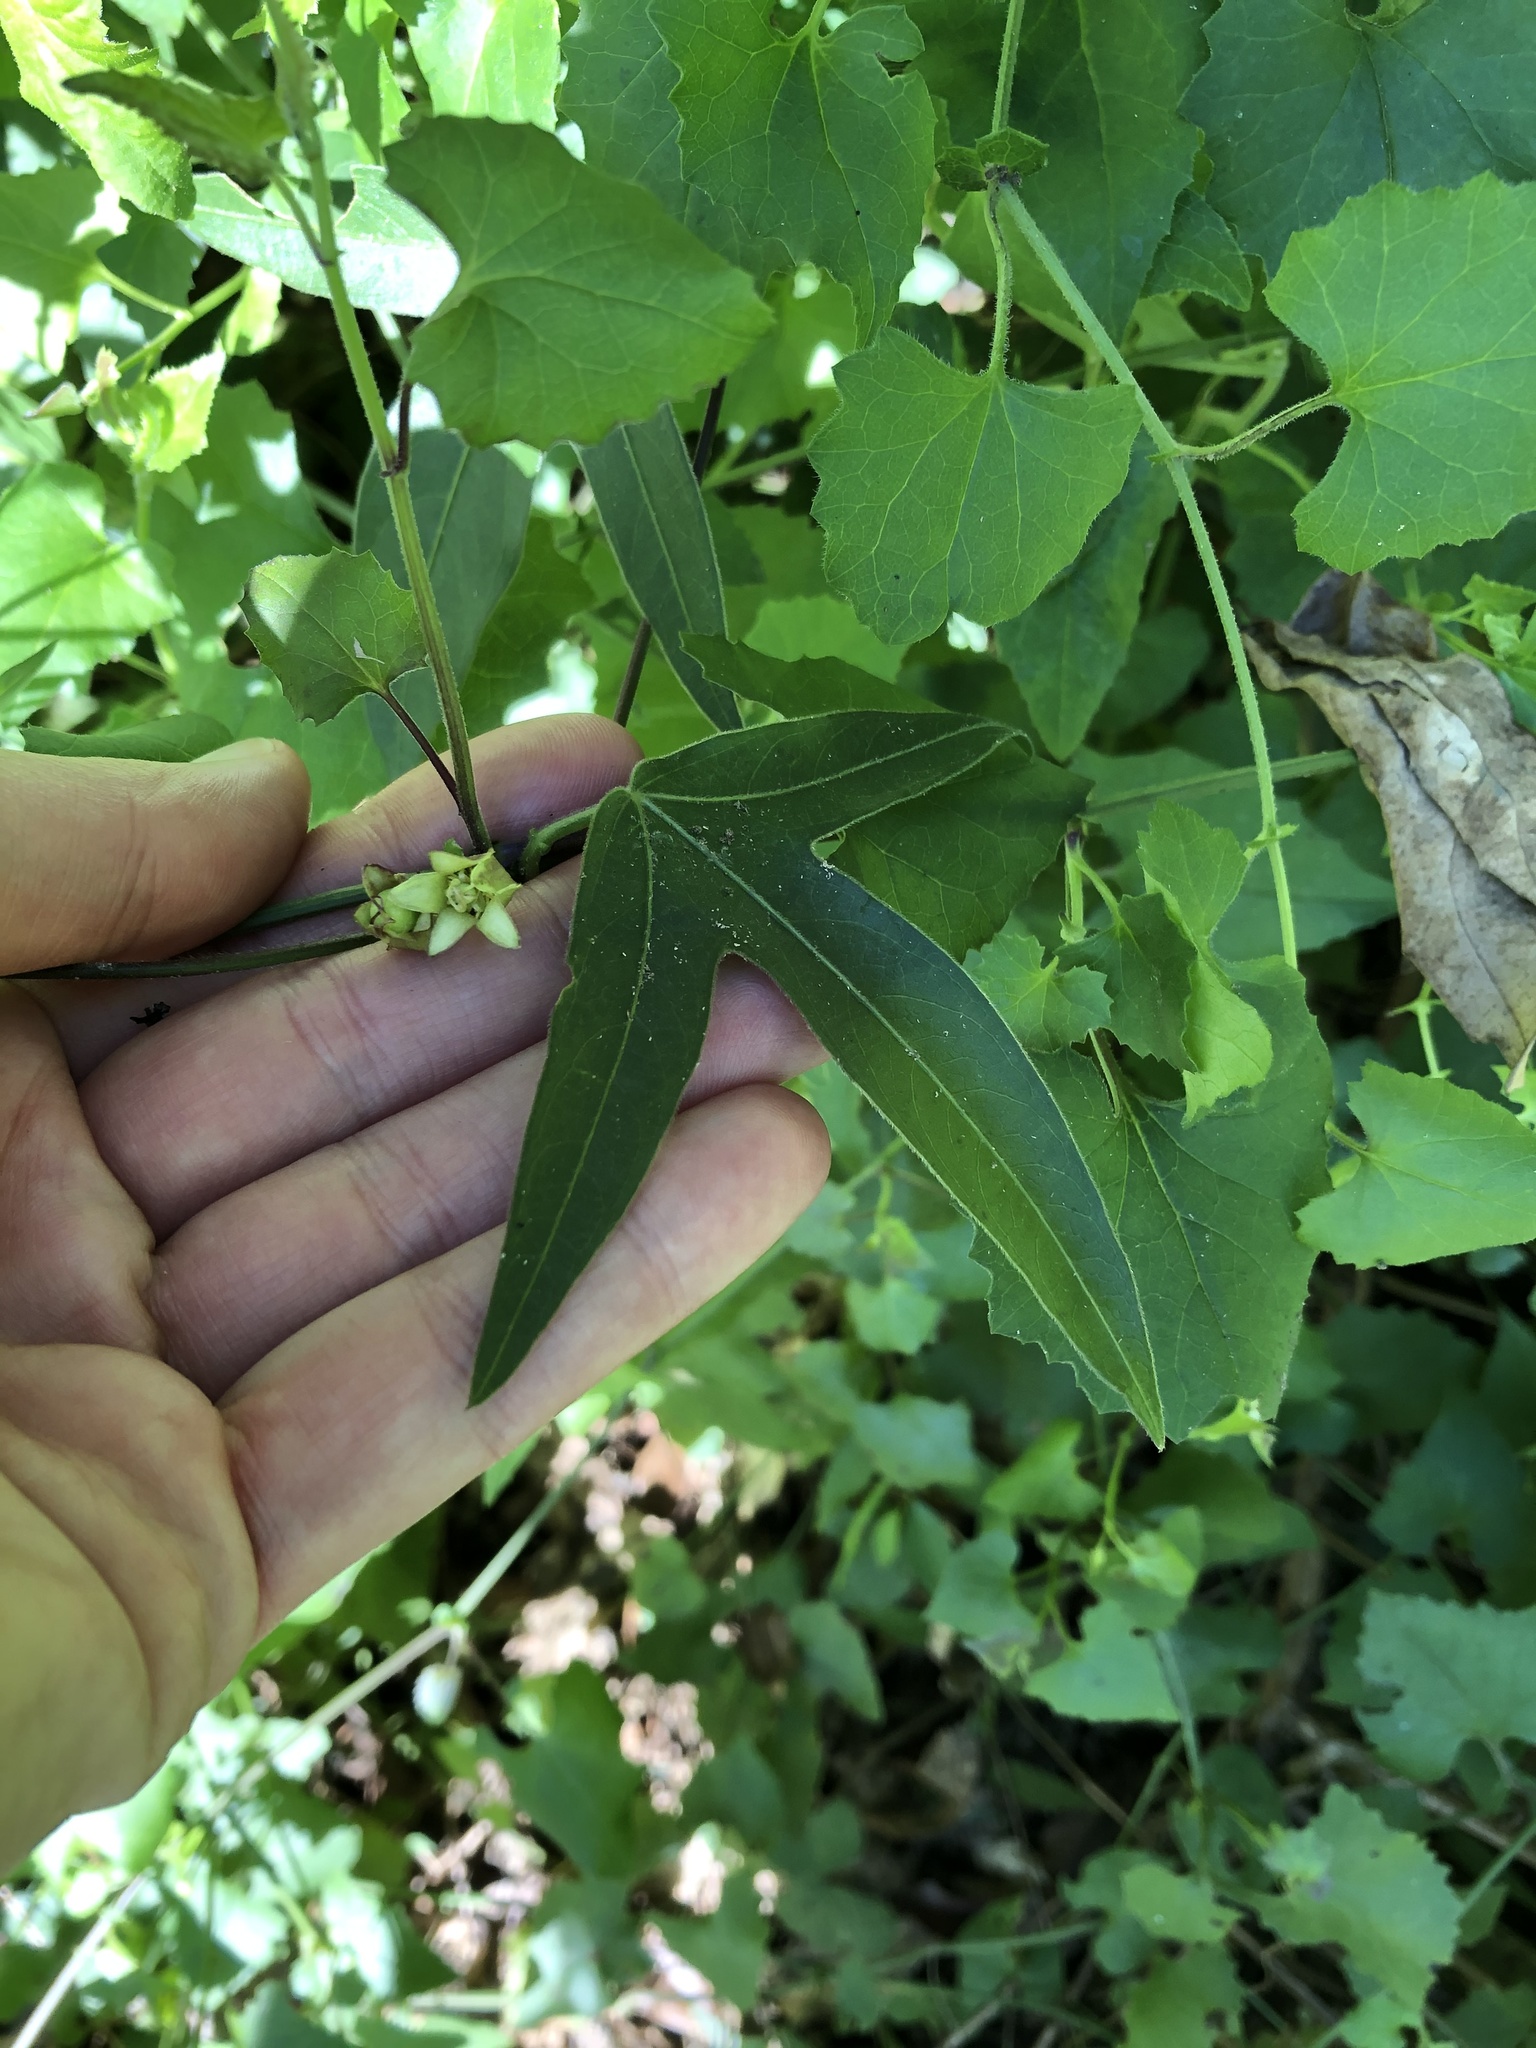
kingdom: Plantae
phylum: Tracheophyta
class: Magnoliopsida
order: Malpighiales
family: Passifloraceae
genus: Passiflora
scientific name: Passiflora suberosa
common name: Wild passionfruit
